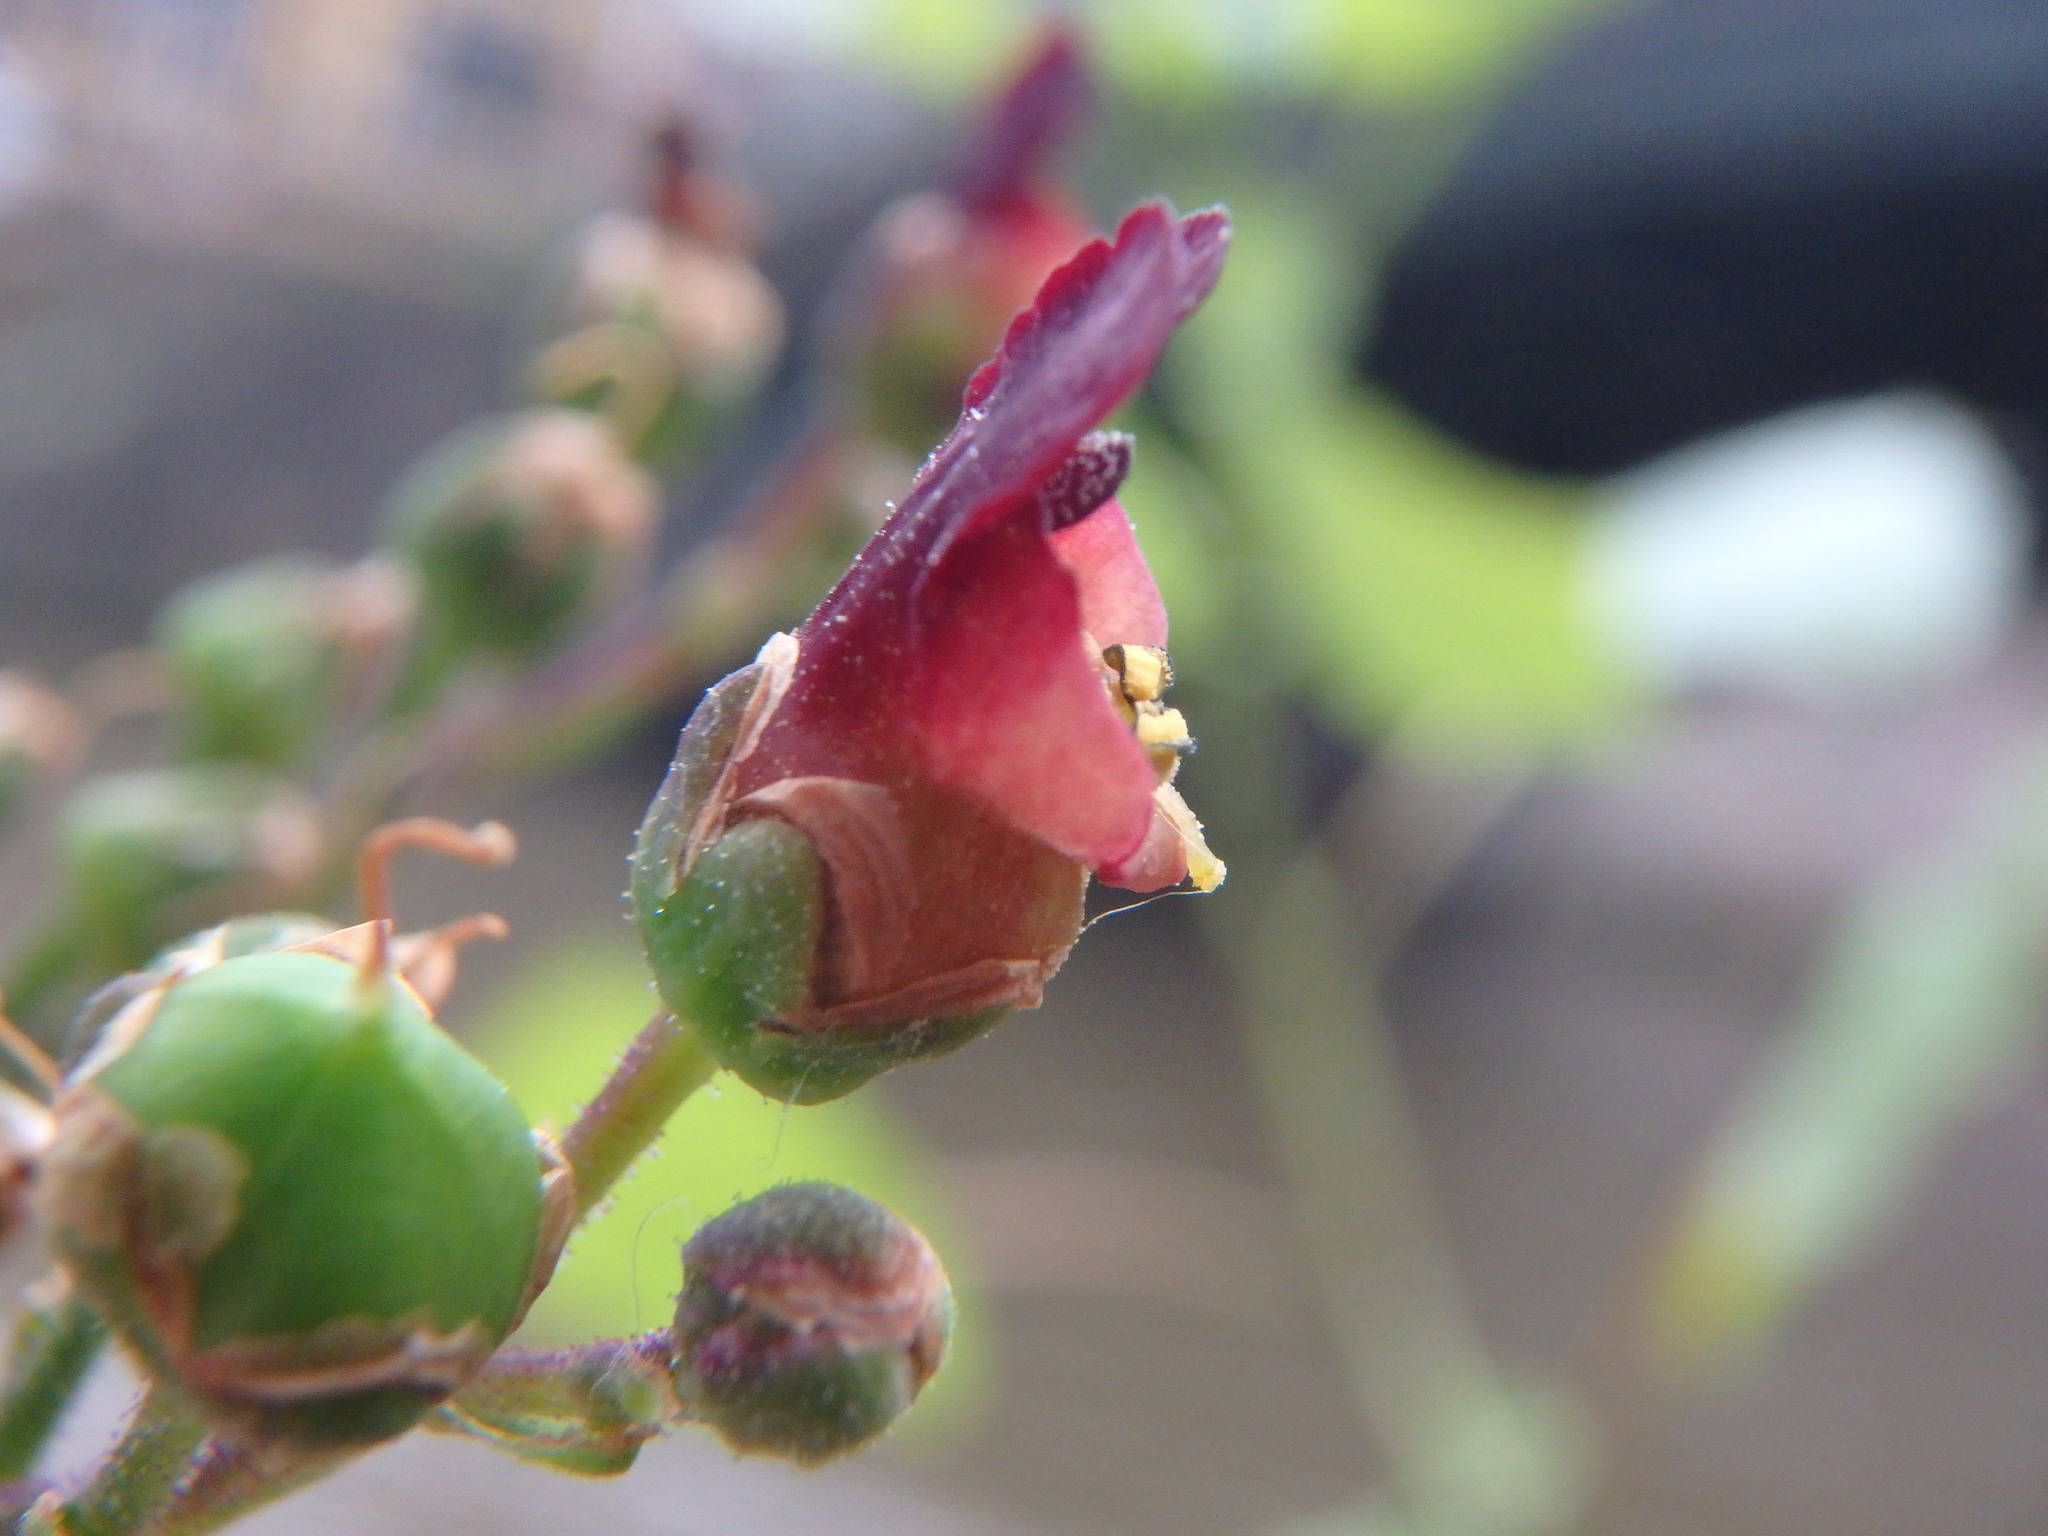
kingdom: Plantae
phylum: Tracheophyta
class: Magnoliopsida
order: Lamiales
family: Scrophulariaceae
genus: Scrophularia
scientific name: Scrophularia nodosa
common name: Common figwort
